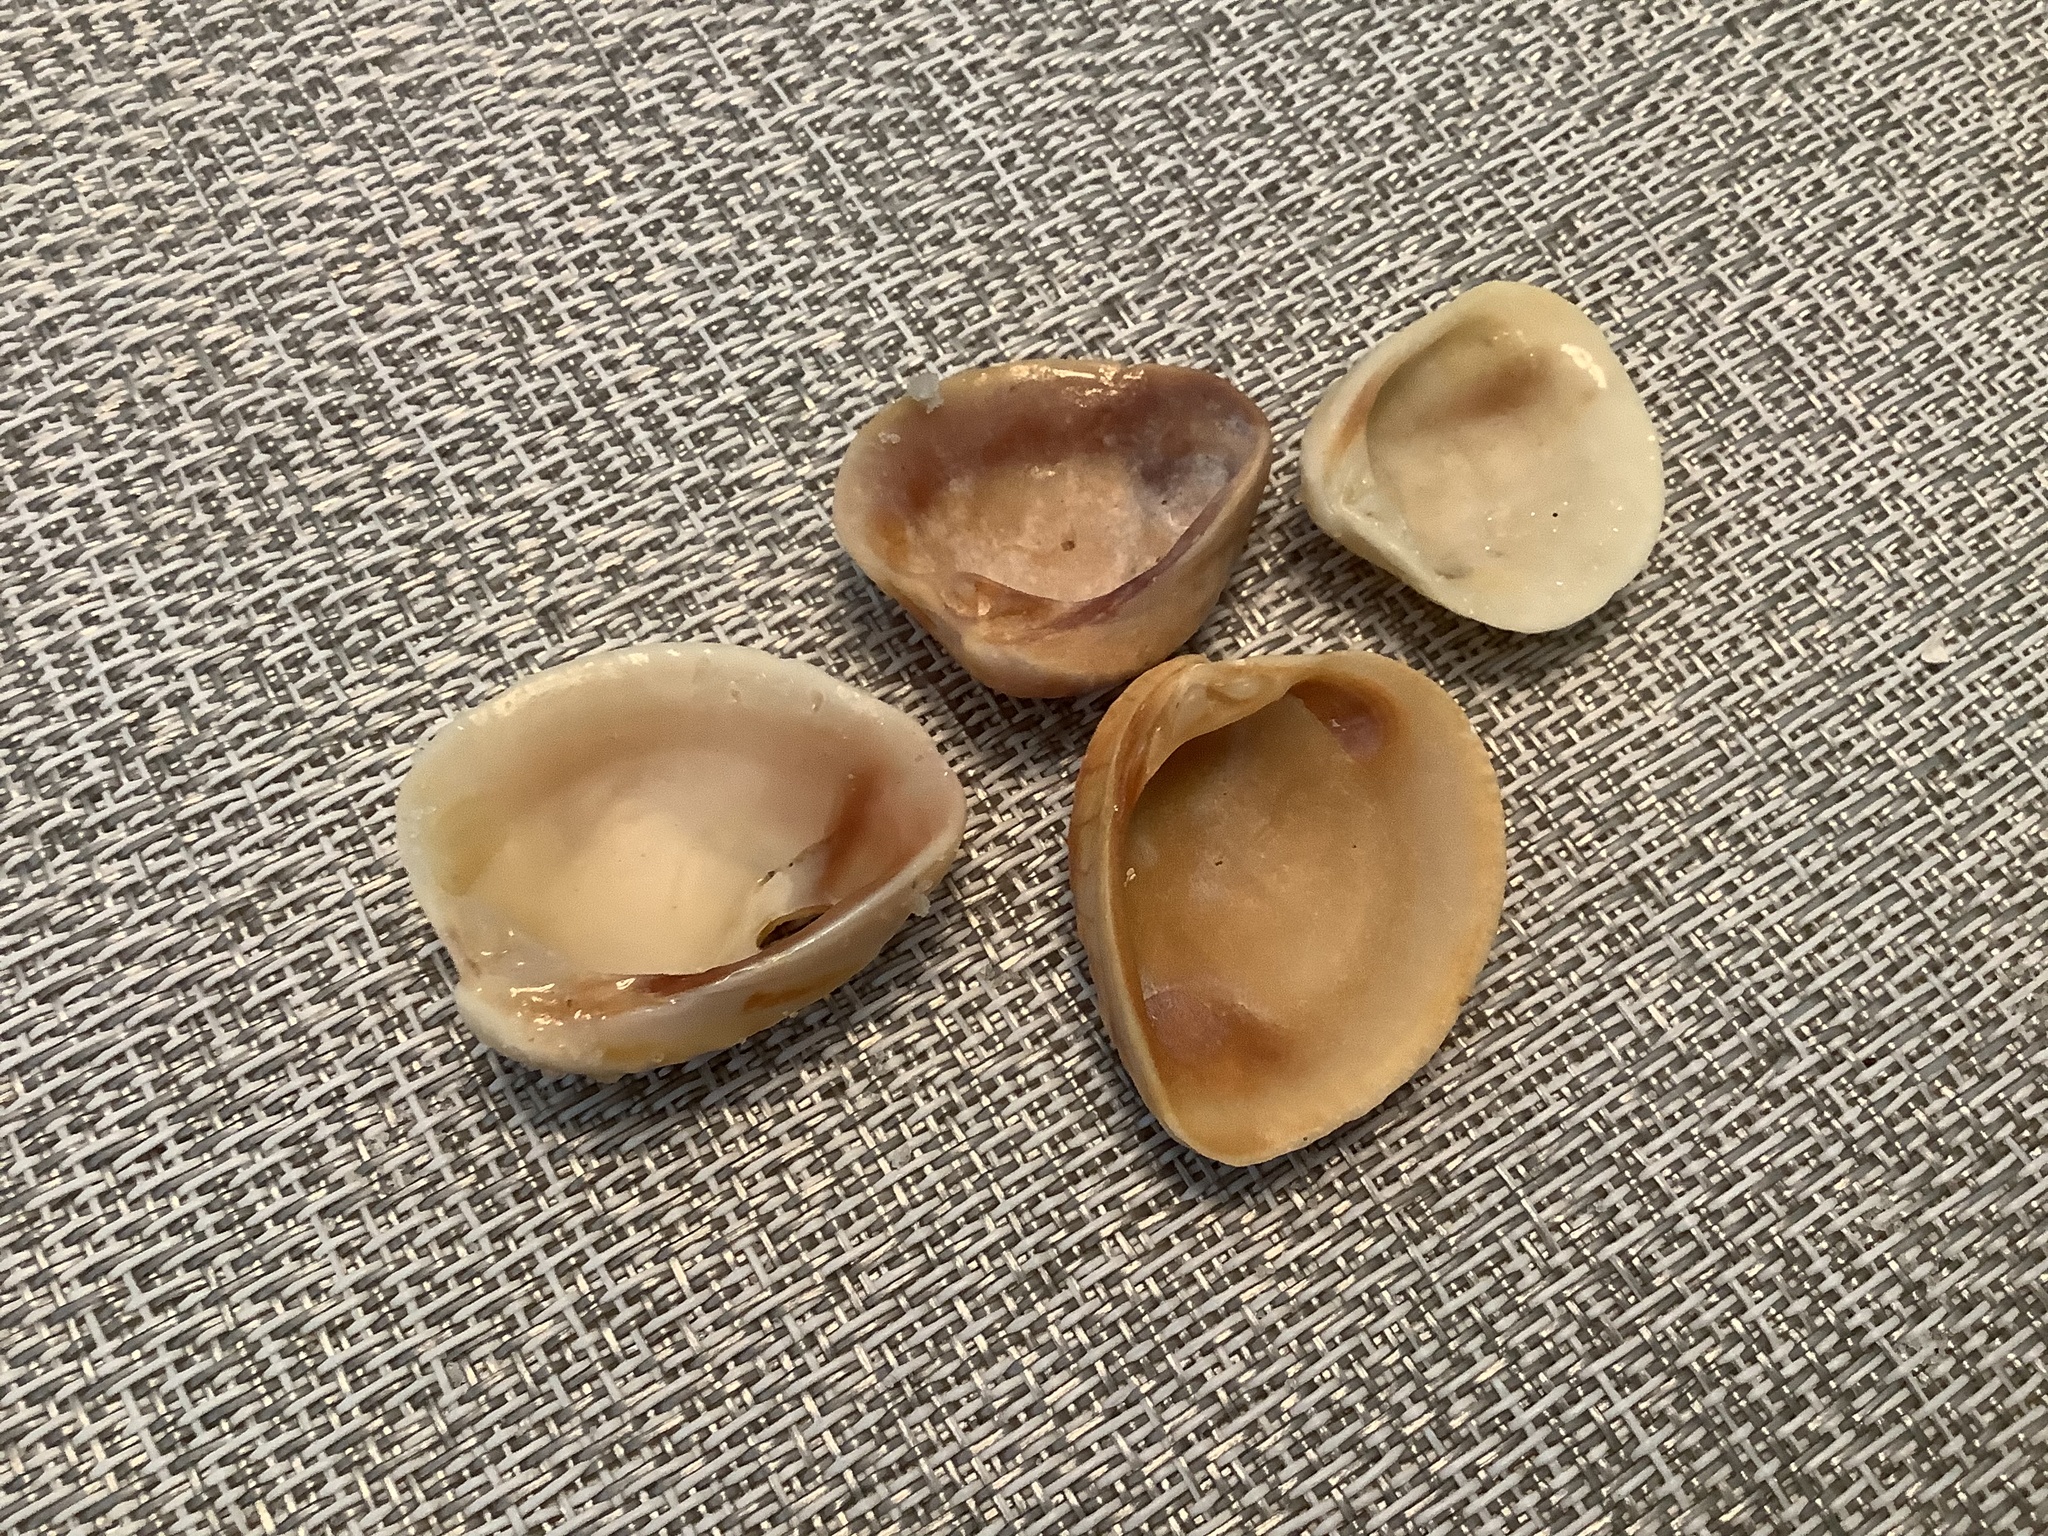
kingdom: Animalia
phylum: Mollusca
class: Bivalvia
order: Venerida
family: Veneridae
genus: Chione
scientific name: Chione elevata
